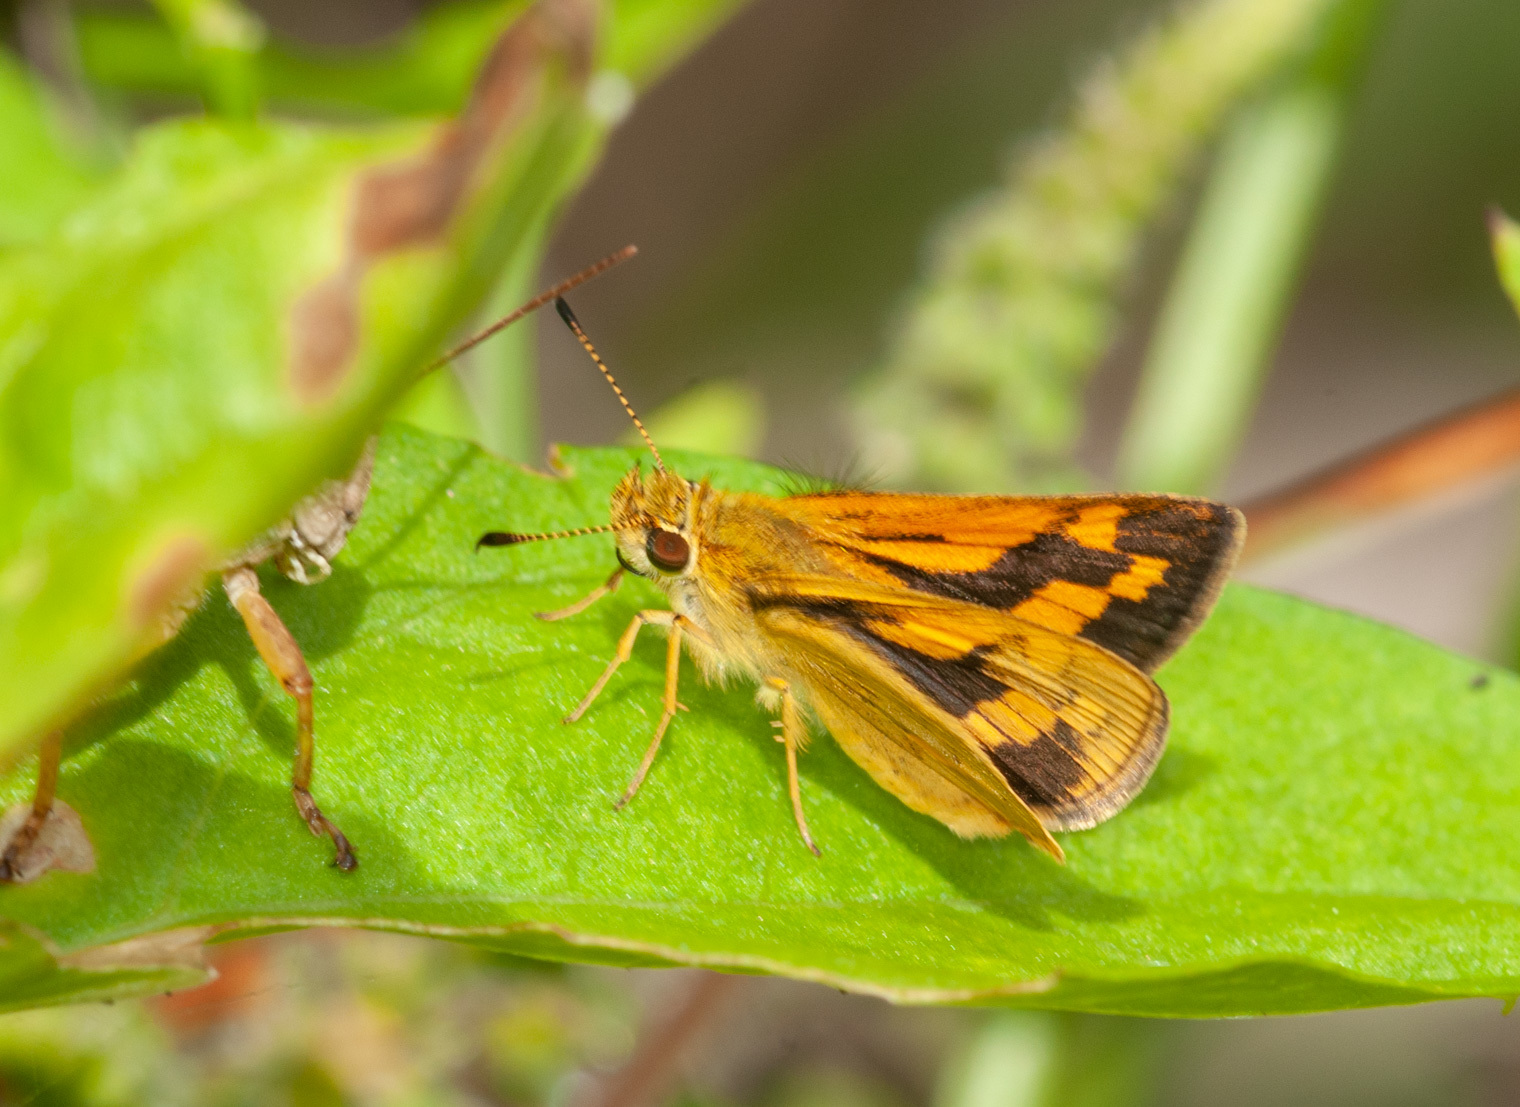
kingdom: Animalia
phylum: Arthropoda
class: Insecta
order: Lepidoptera
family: Hesperiidae
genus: Ocybadistes
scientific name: Ocybadistes walkeri
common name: Yellow-banded dart
